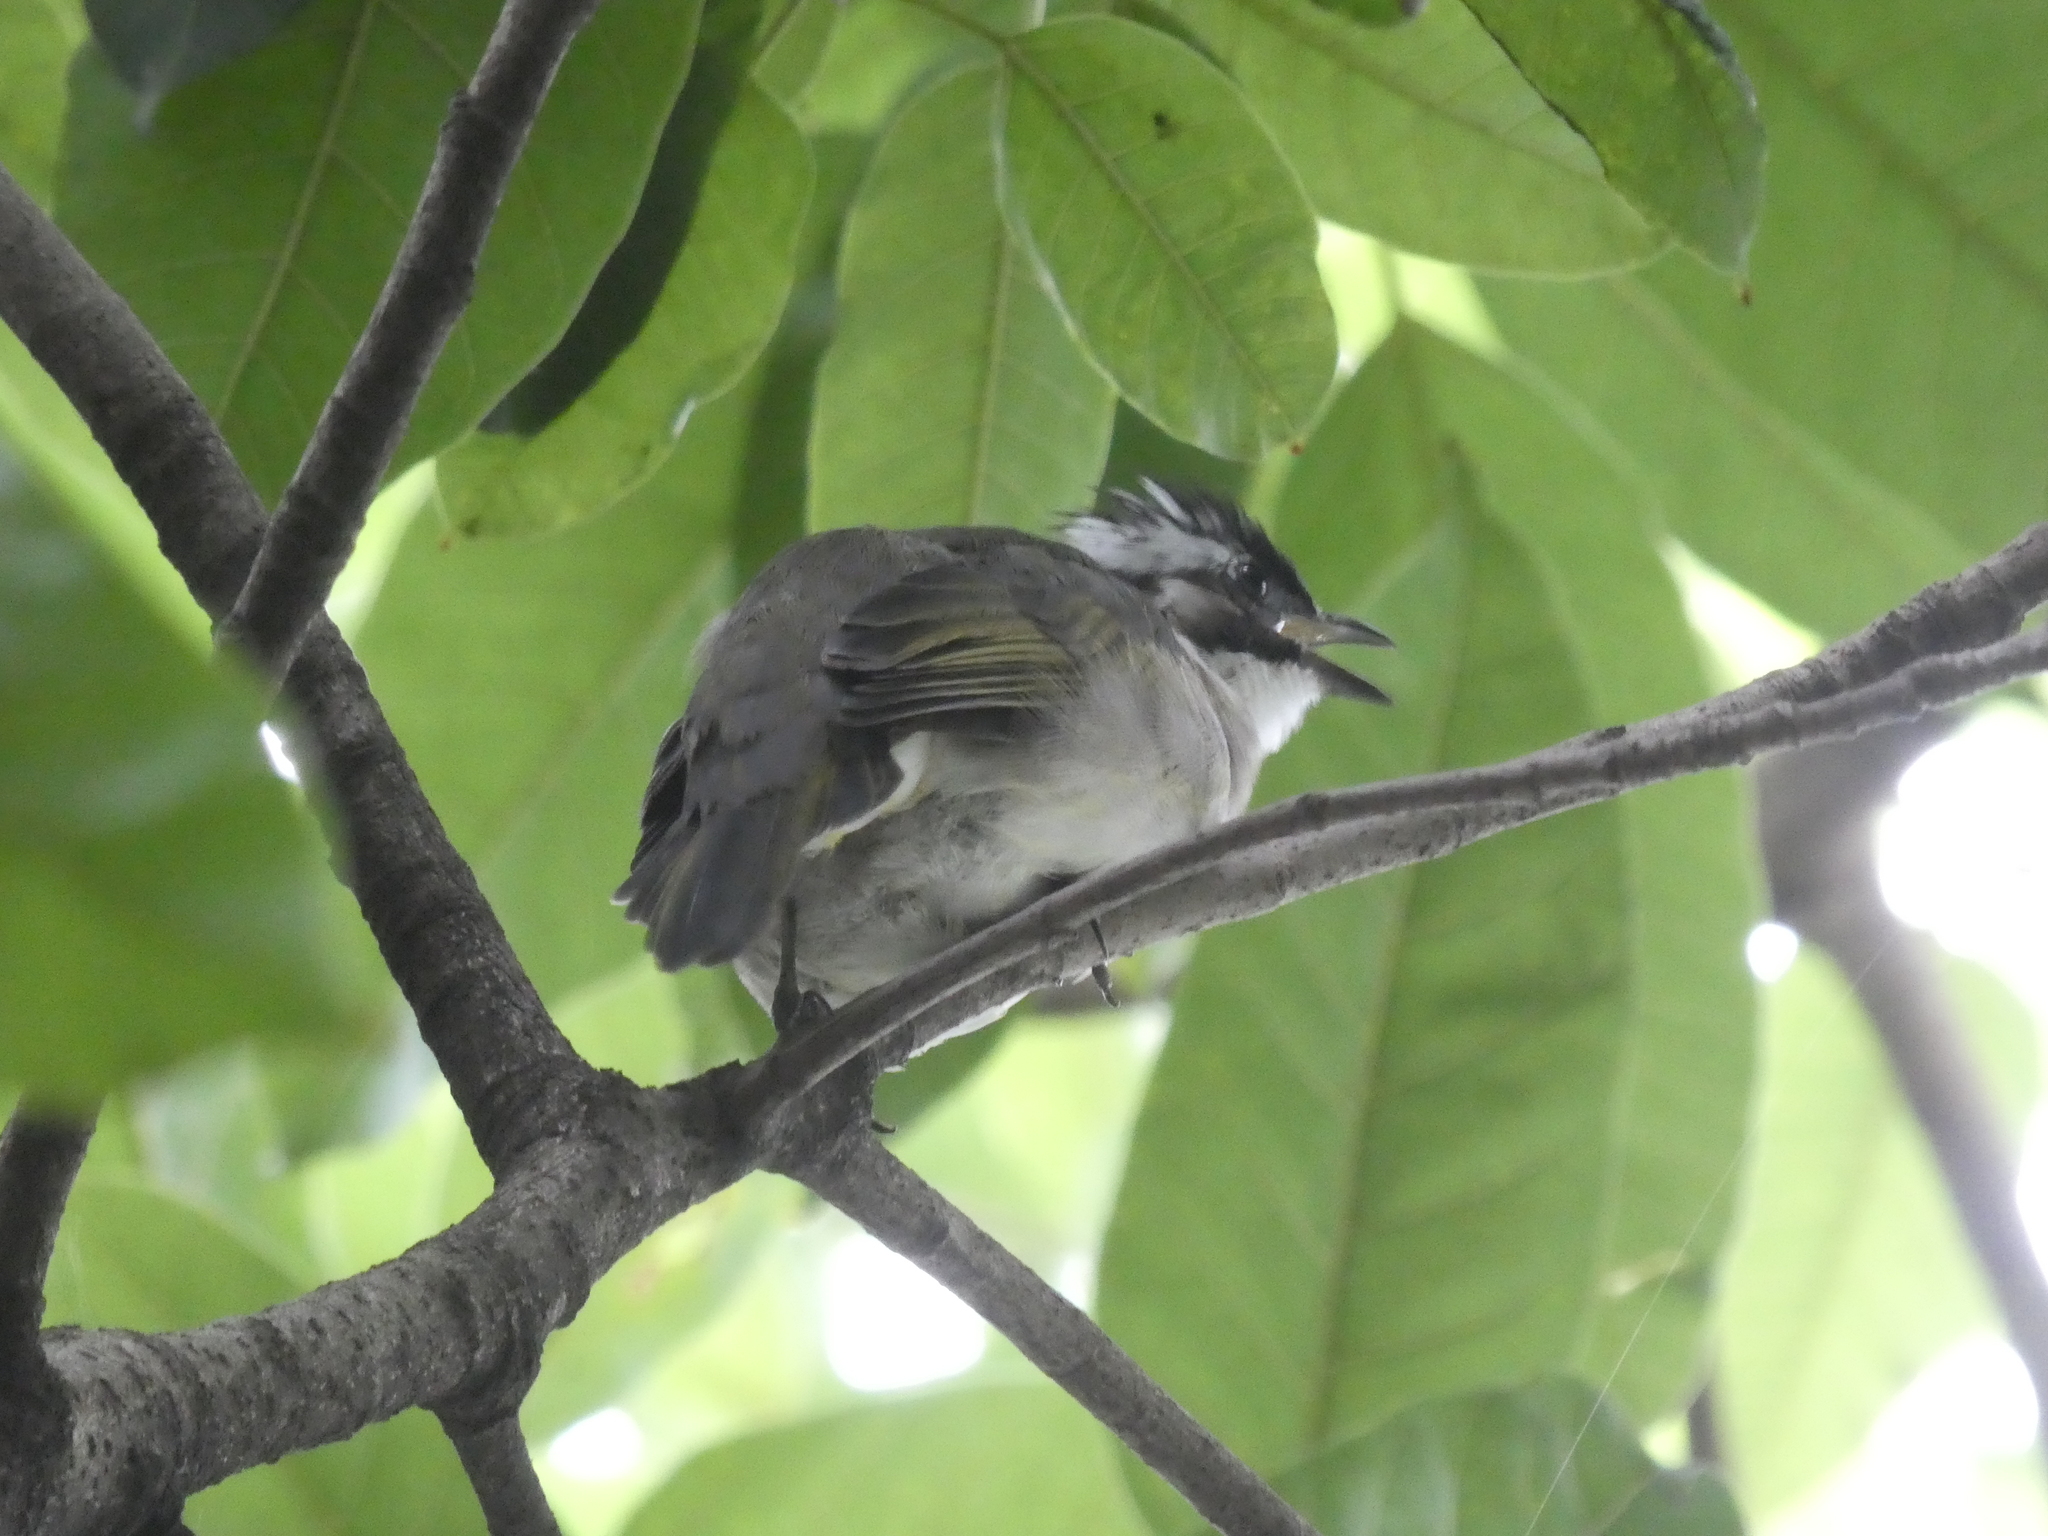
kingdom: Animalia
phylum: Chordata
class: Aves
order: Passeriformes
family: Pycnonotidae
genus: Pycnonotus
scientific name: Pycnonotus sinensis
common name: Light-vented bulbul
